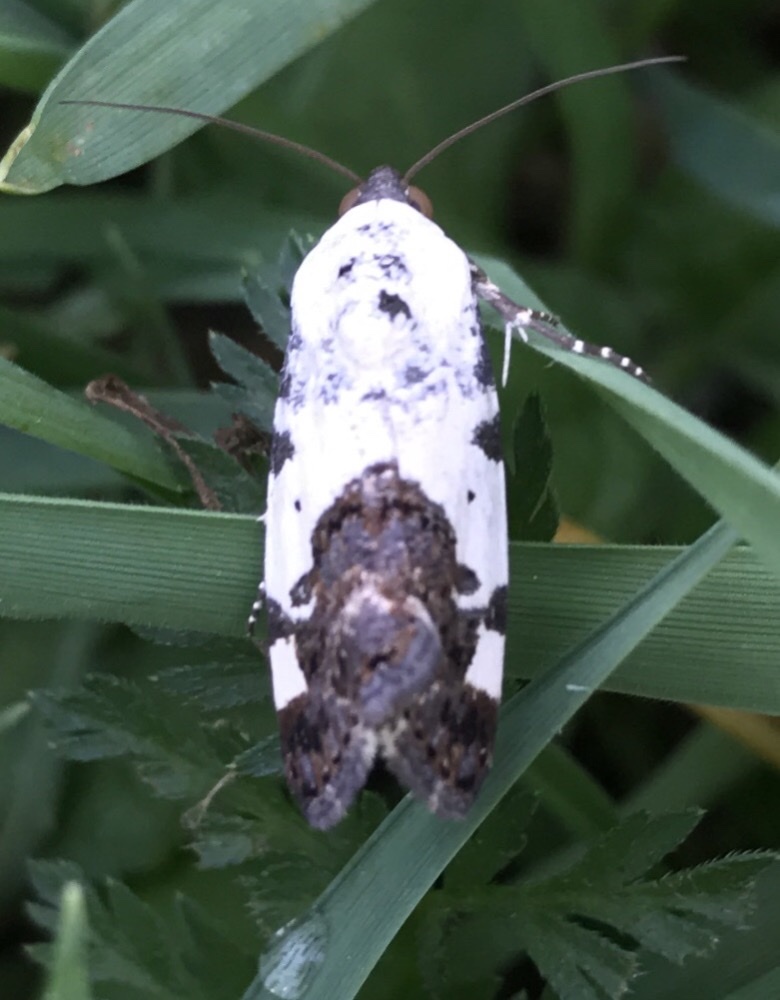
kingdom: Animalia
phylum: Arthropoda
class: Insecta
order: Lepidoptera
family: Noctuidae
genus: Acontia
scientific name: Acontia aprica
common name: Nun
